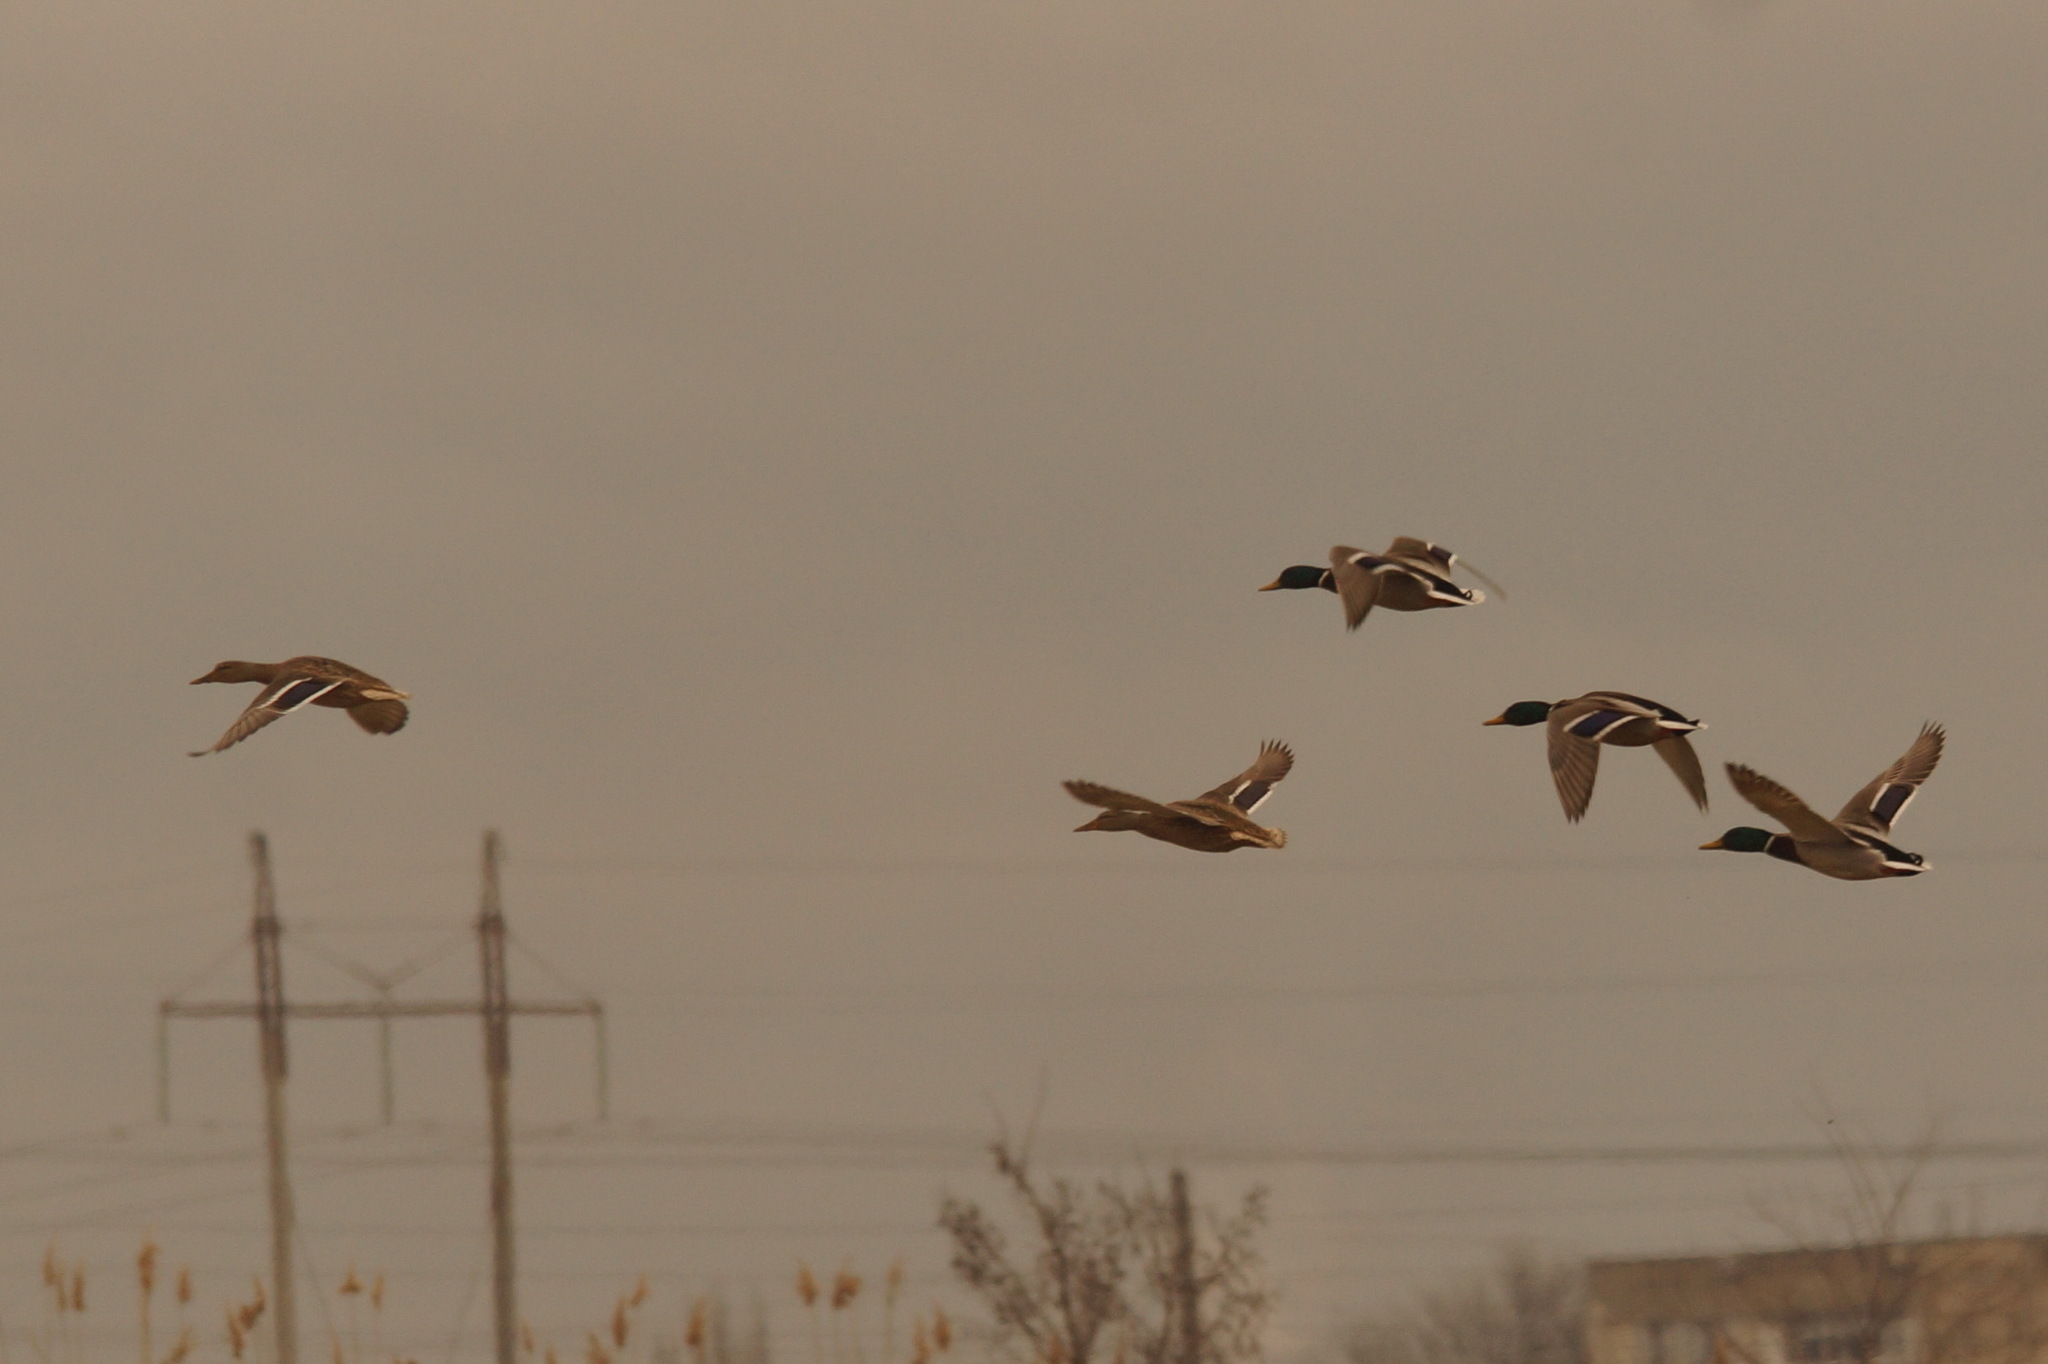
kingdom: Animalia
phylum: Chordata
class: Aves
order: Anseriformes
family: Anatidae
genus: Anas
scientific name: Anas platyrhynchos
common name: Mallard
